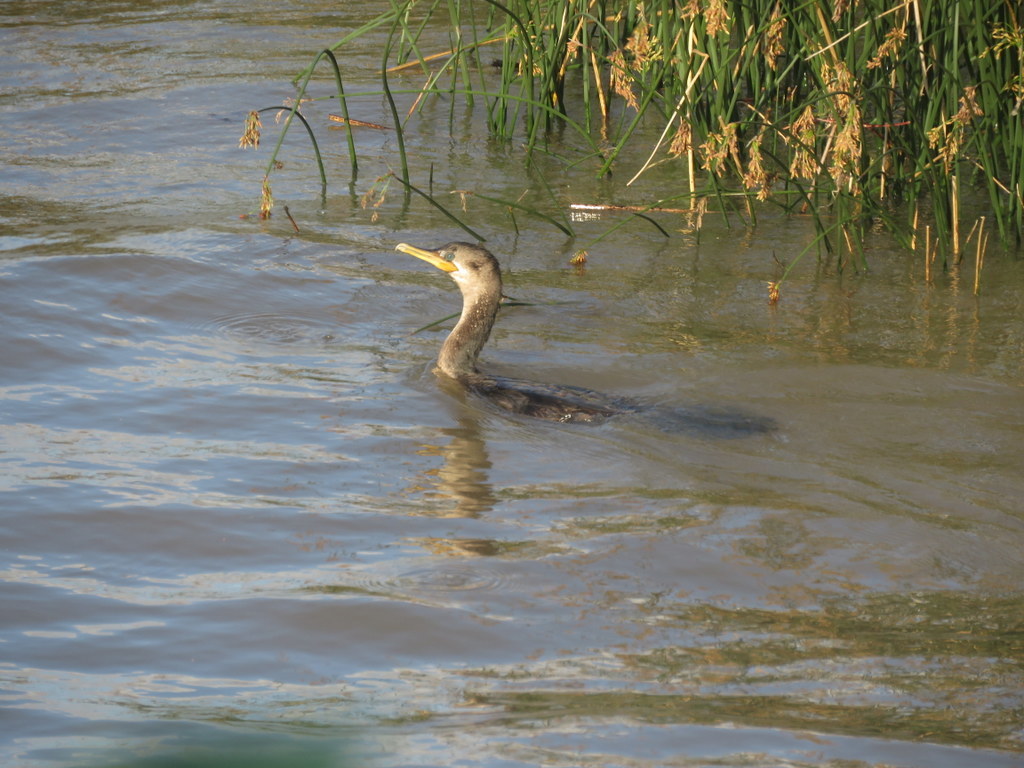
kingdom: Animalia
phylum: Chordata
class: Aves
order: Suliformes
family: Phalacrocoracidae
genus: Phalacrocorax
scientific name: Phalacrocorax brasilianus
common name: Neotropic cormorant
